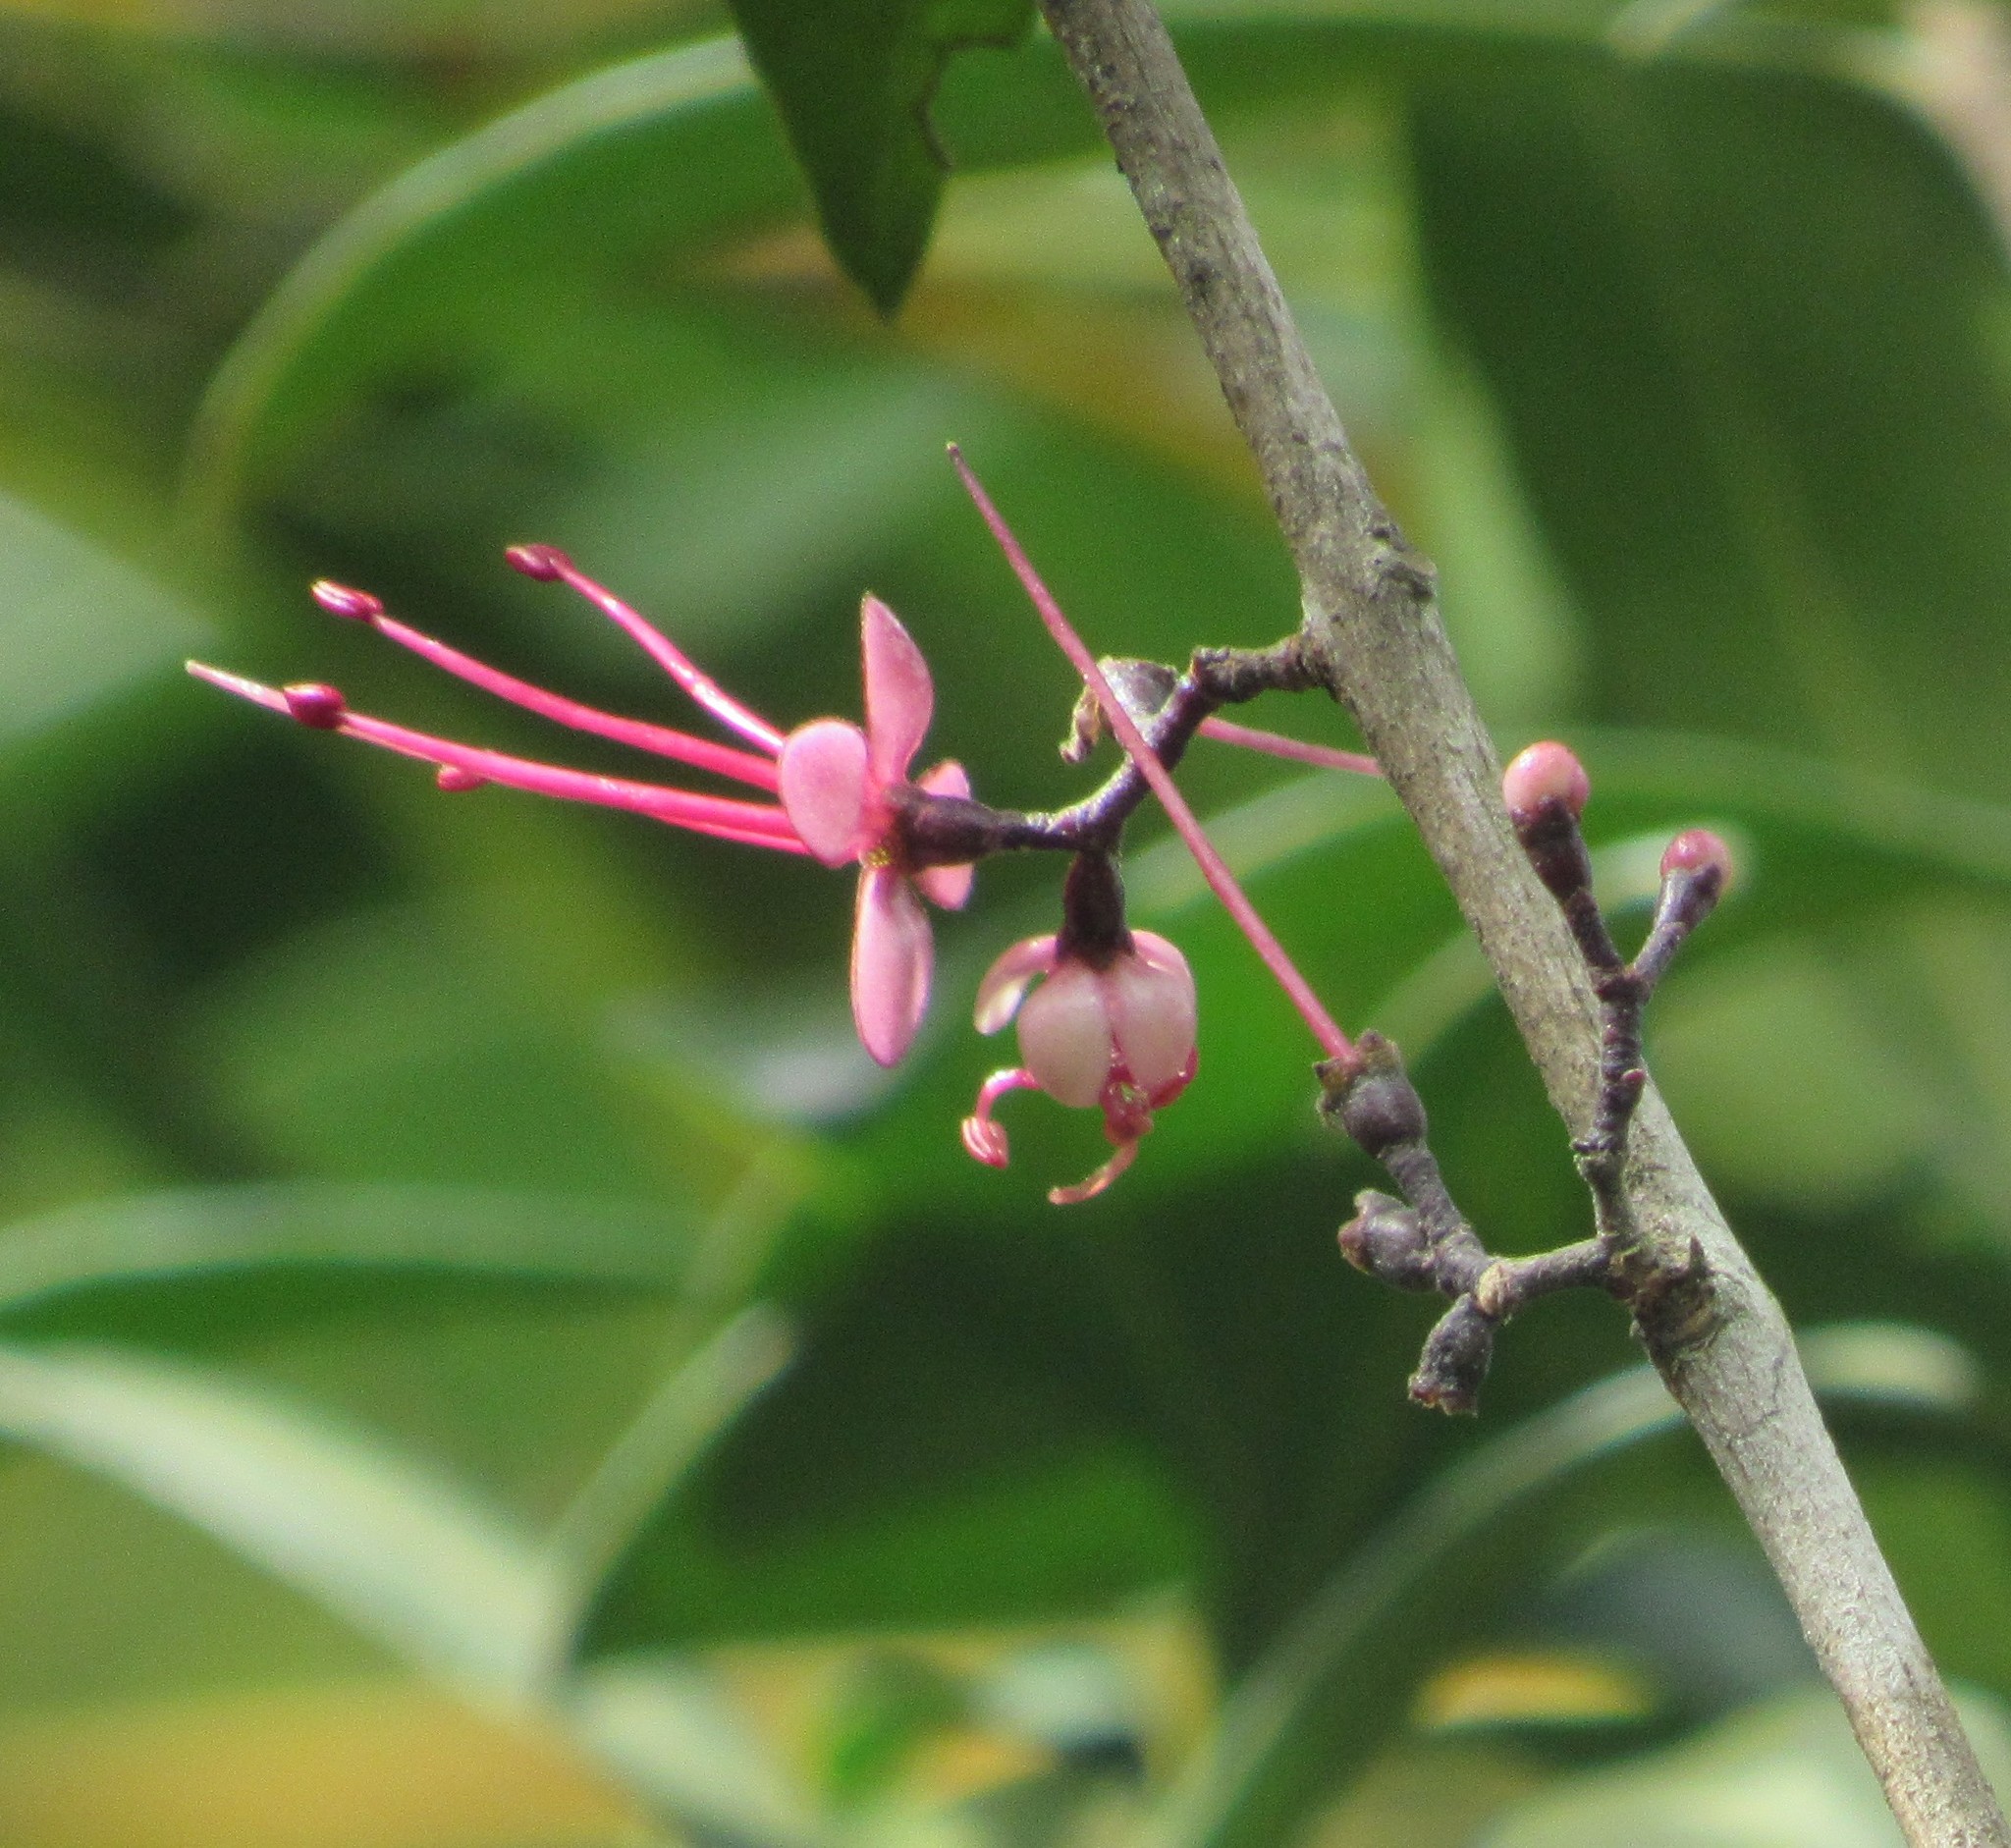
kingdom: Plantae
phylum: Tracheophyta
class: Magnoliopsida
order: Myrtales
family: Myrtaceae
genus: Myrrhinium
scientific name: Myrrhinium atropurpureum
